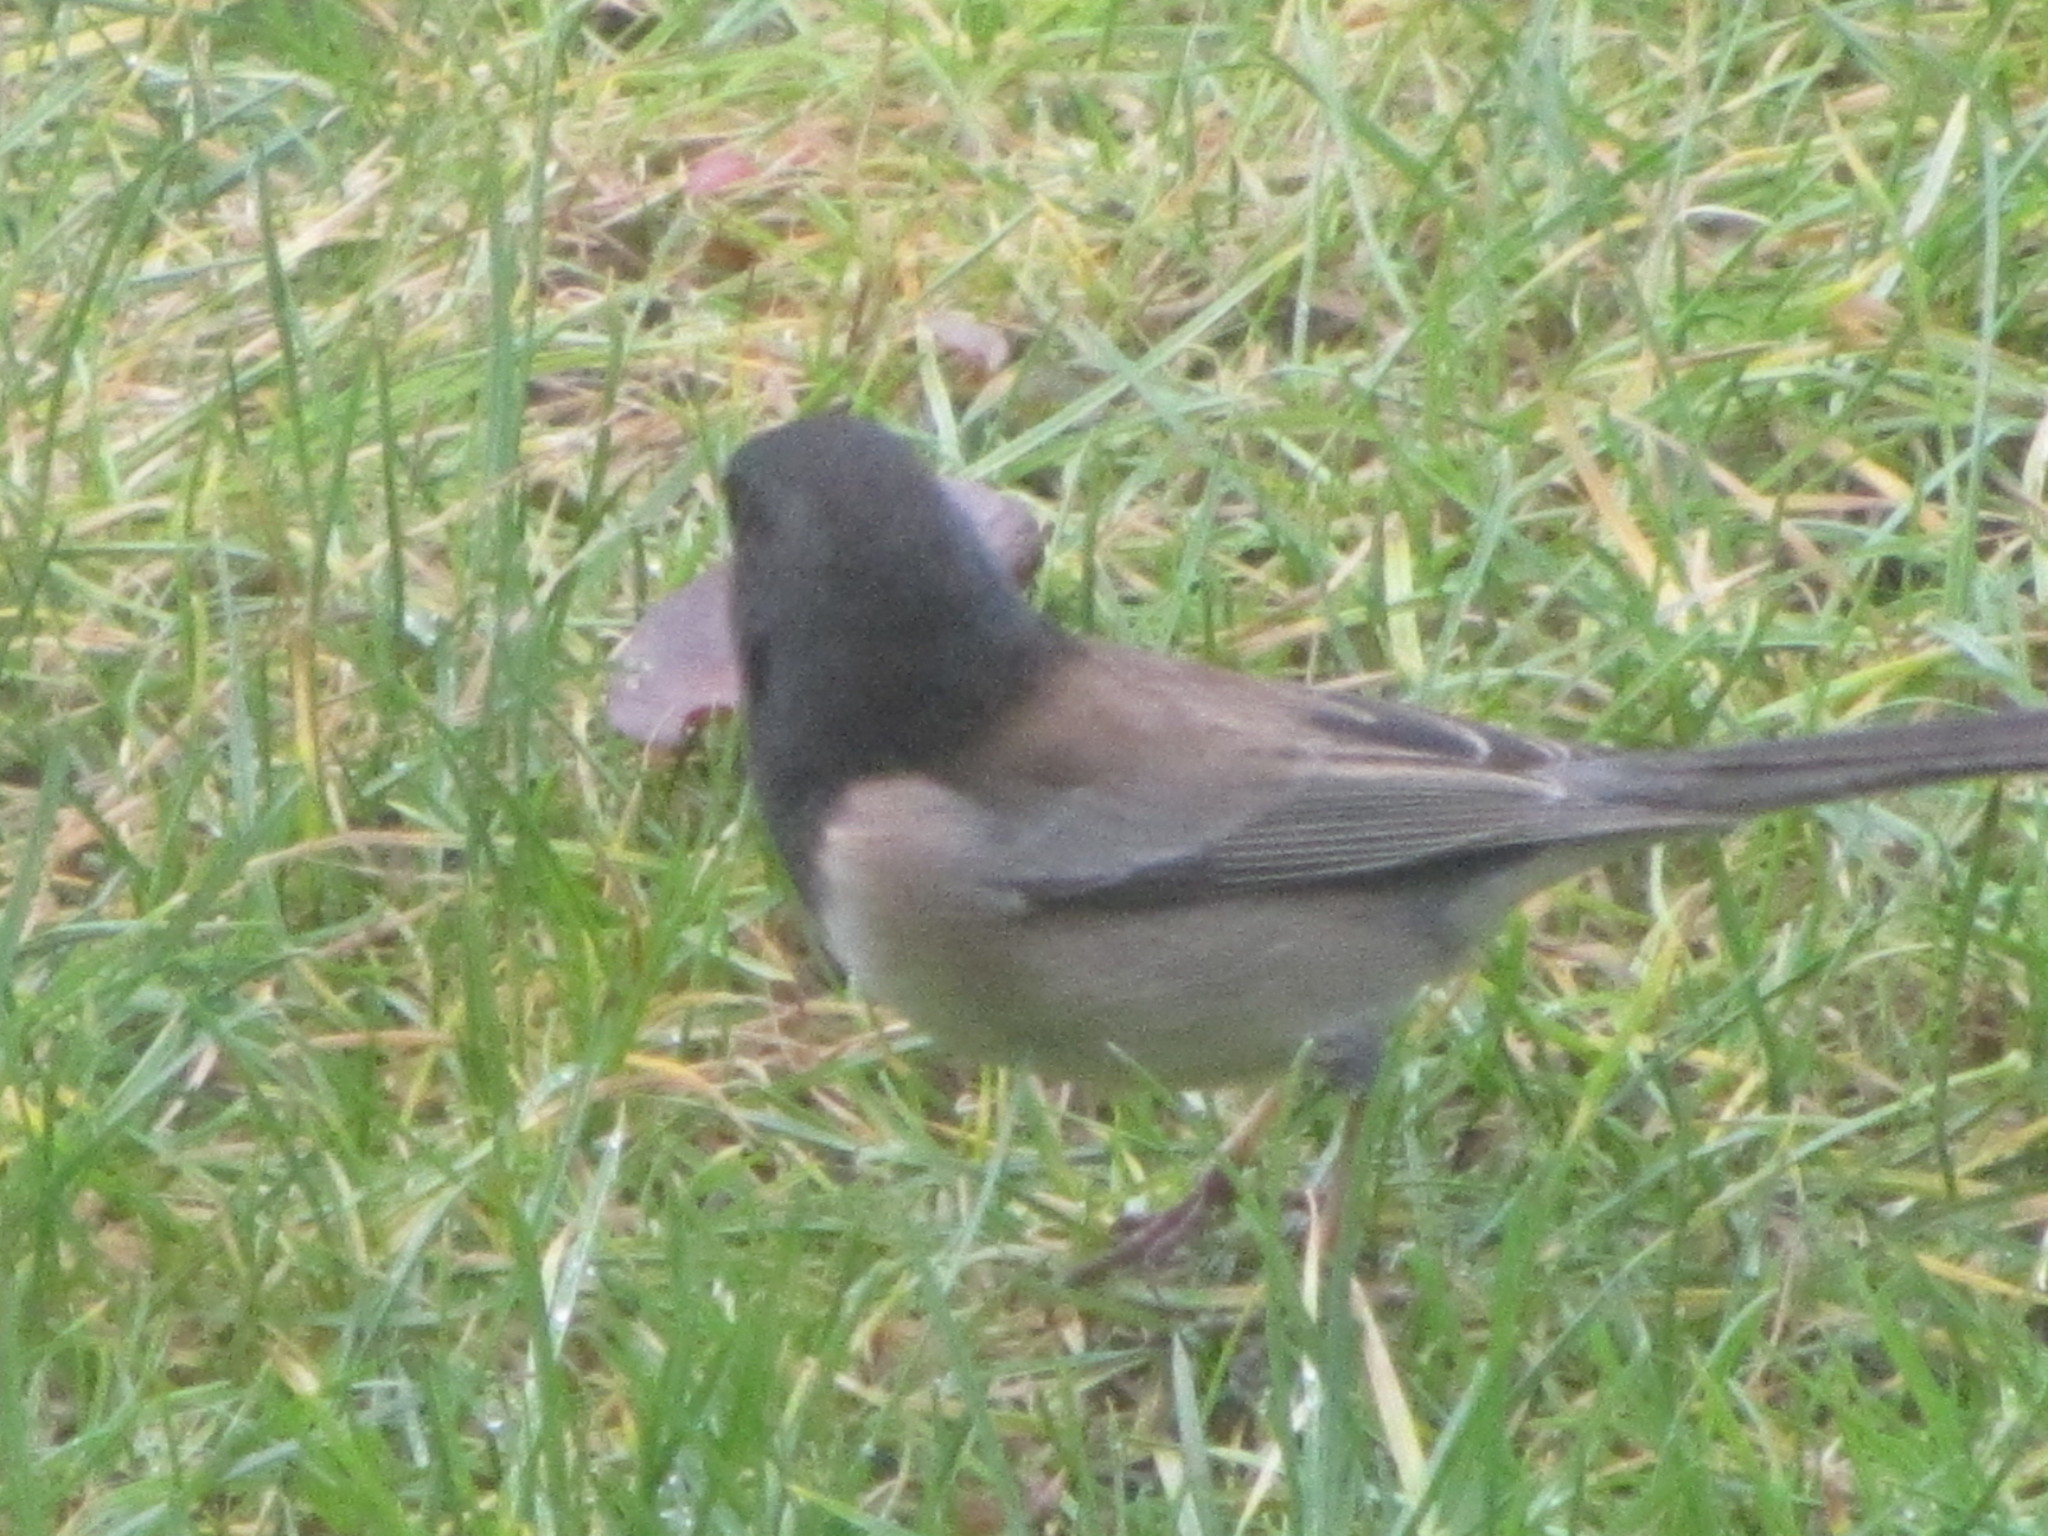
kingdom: Animalia
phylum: Chordata
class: Aves
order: Passeriformes
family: Passerellidae
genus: Junco
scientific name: Junco hyemalis
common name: Dark-eyed junco
